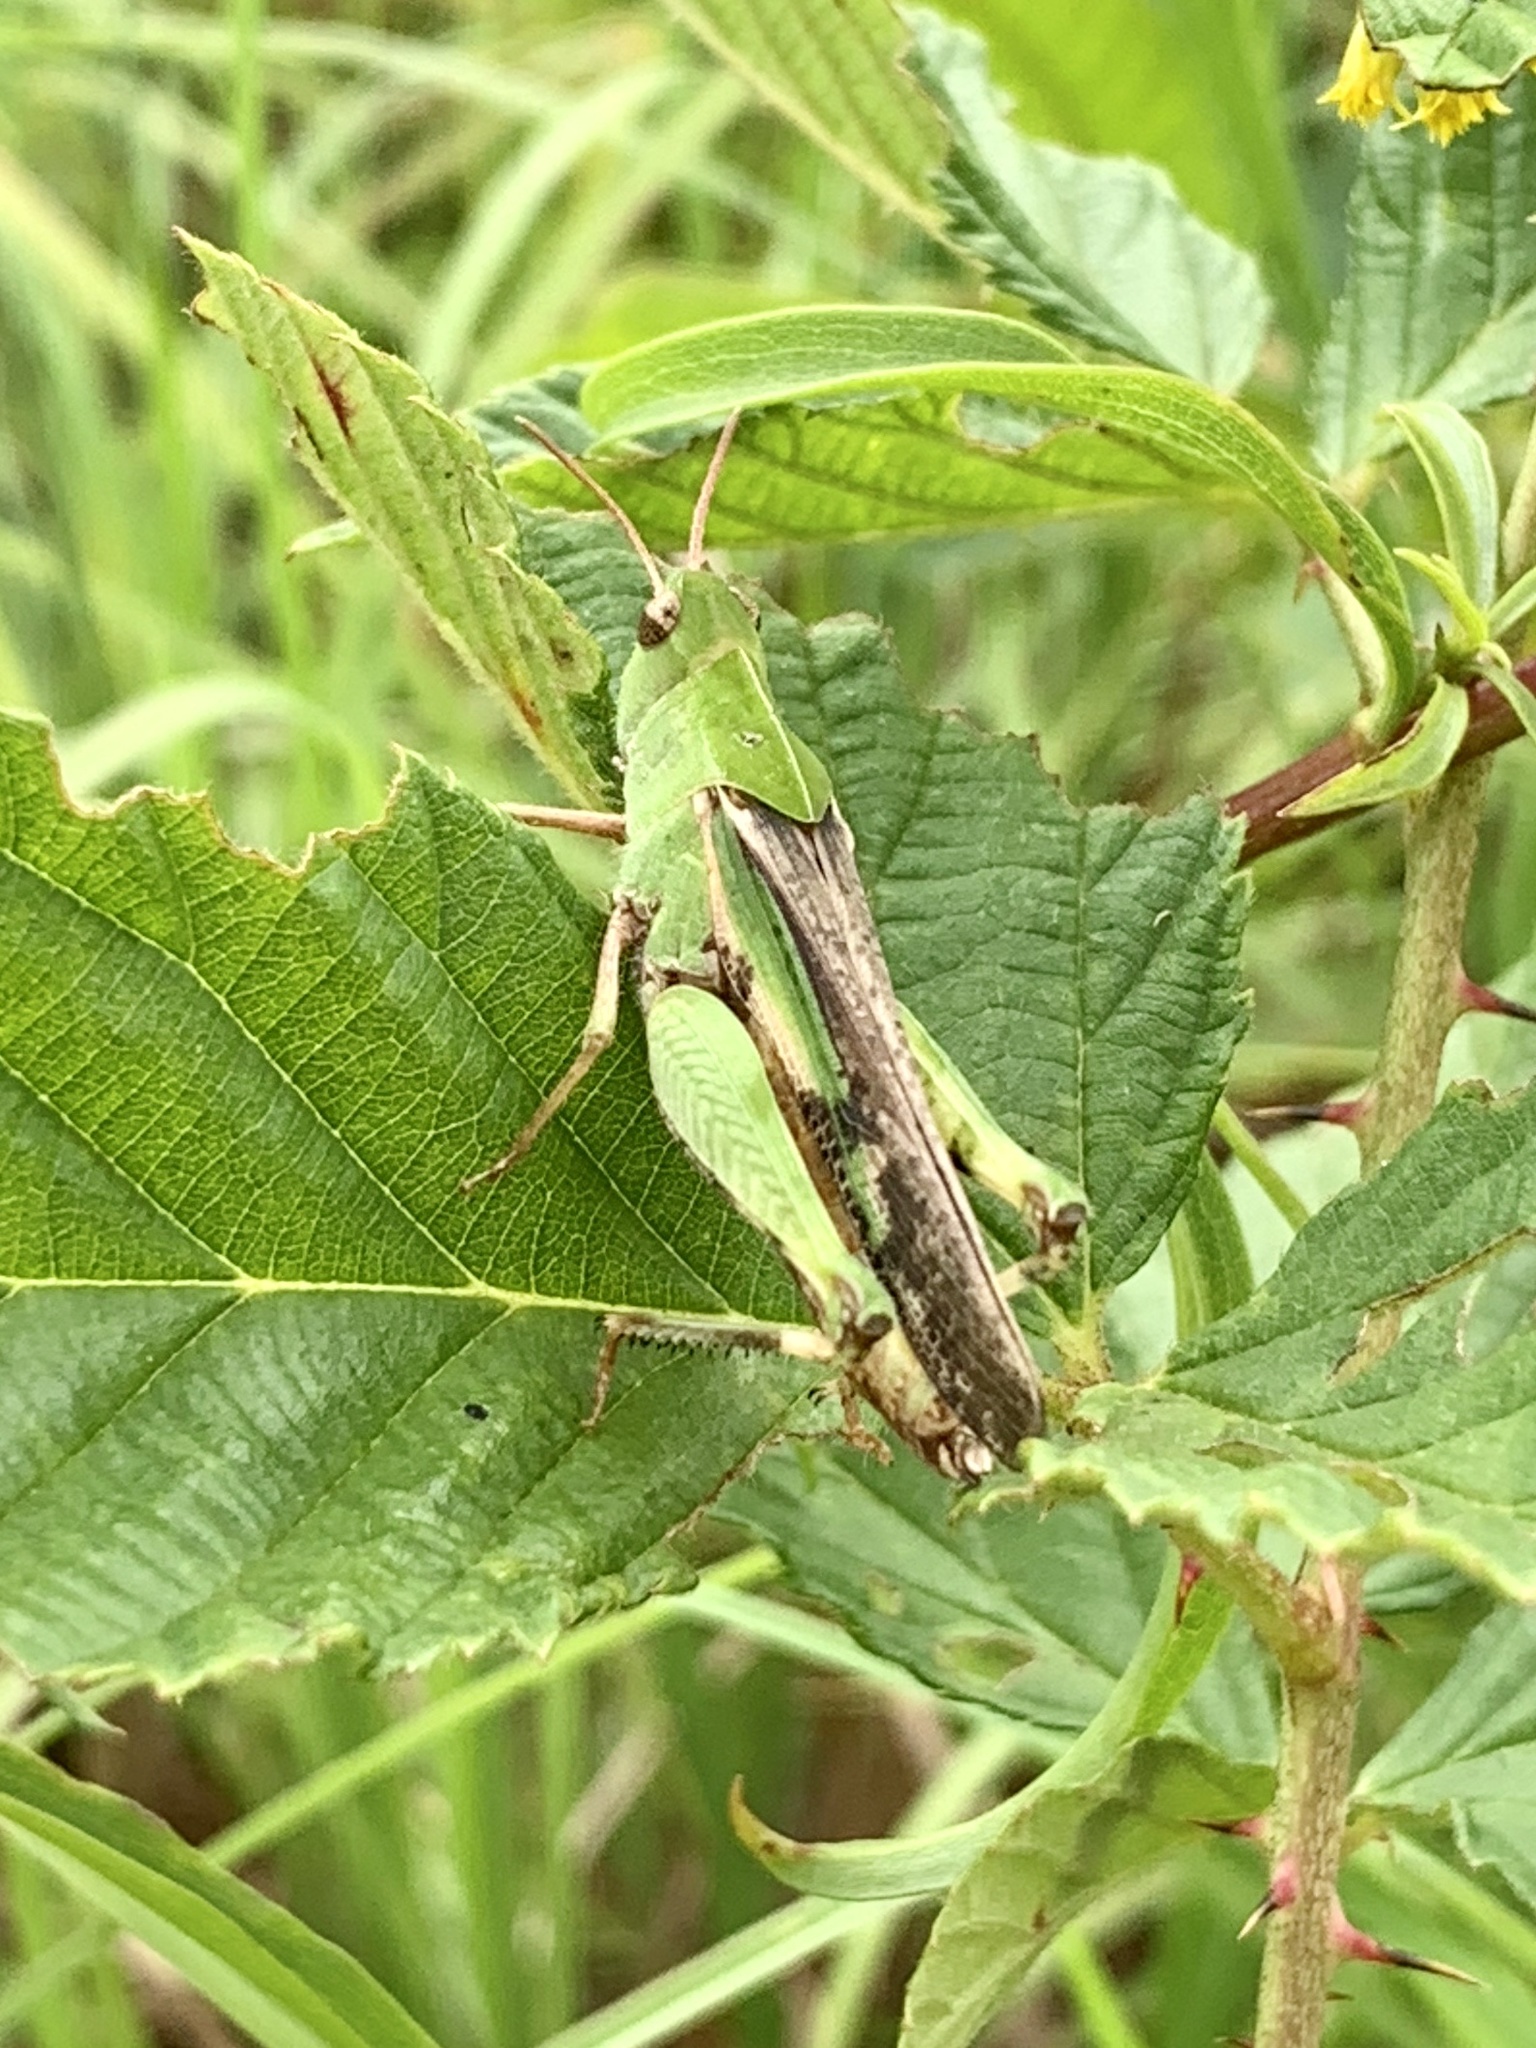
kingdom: Animalia
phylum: Arthropoda
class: Insecta
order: Orthoptera
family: Acrididae
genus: Chortophaga
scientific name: Chortophaga viridifasciata
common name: Green-striped grasshopper
